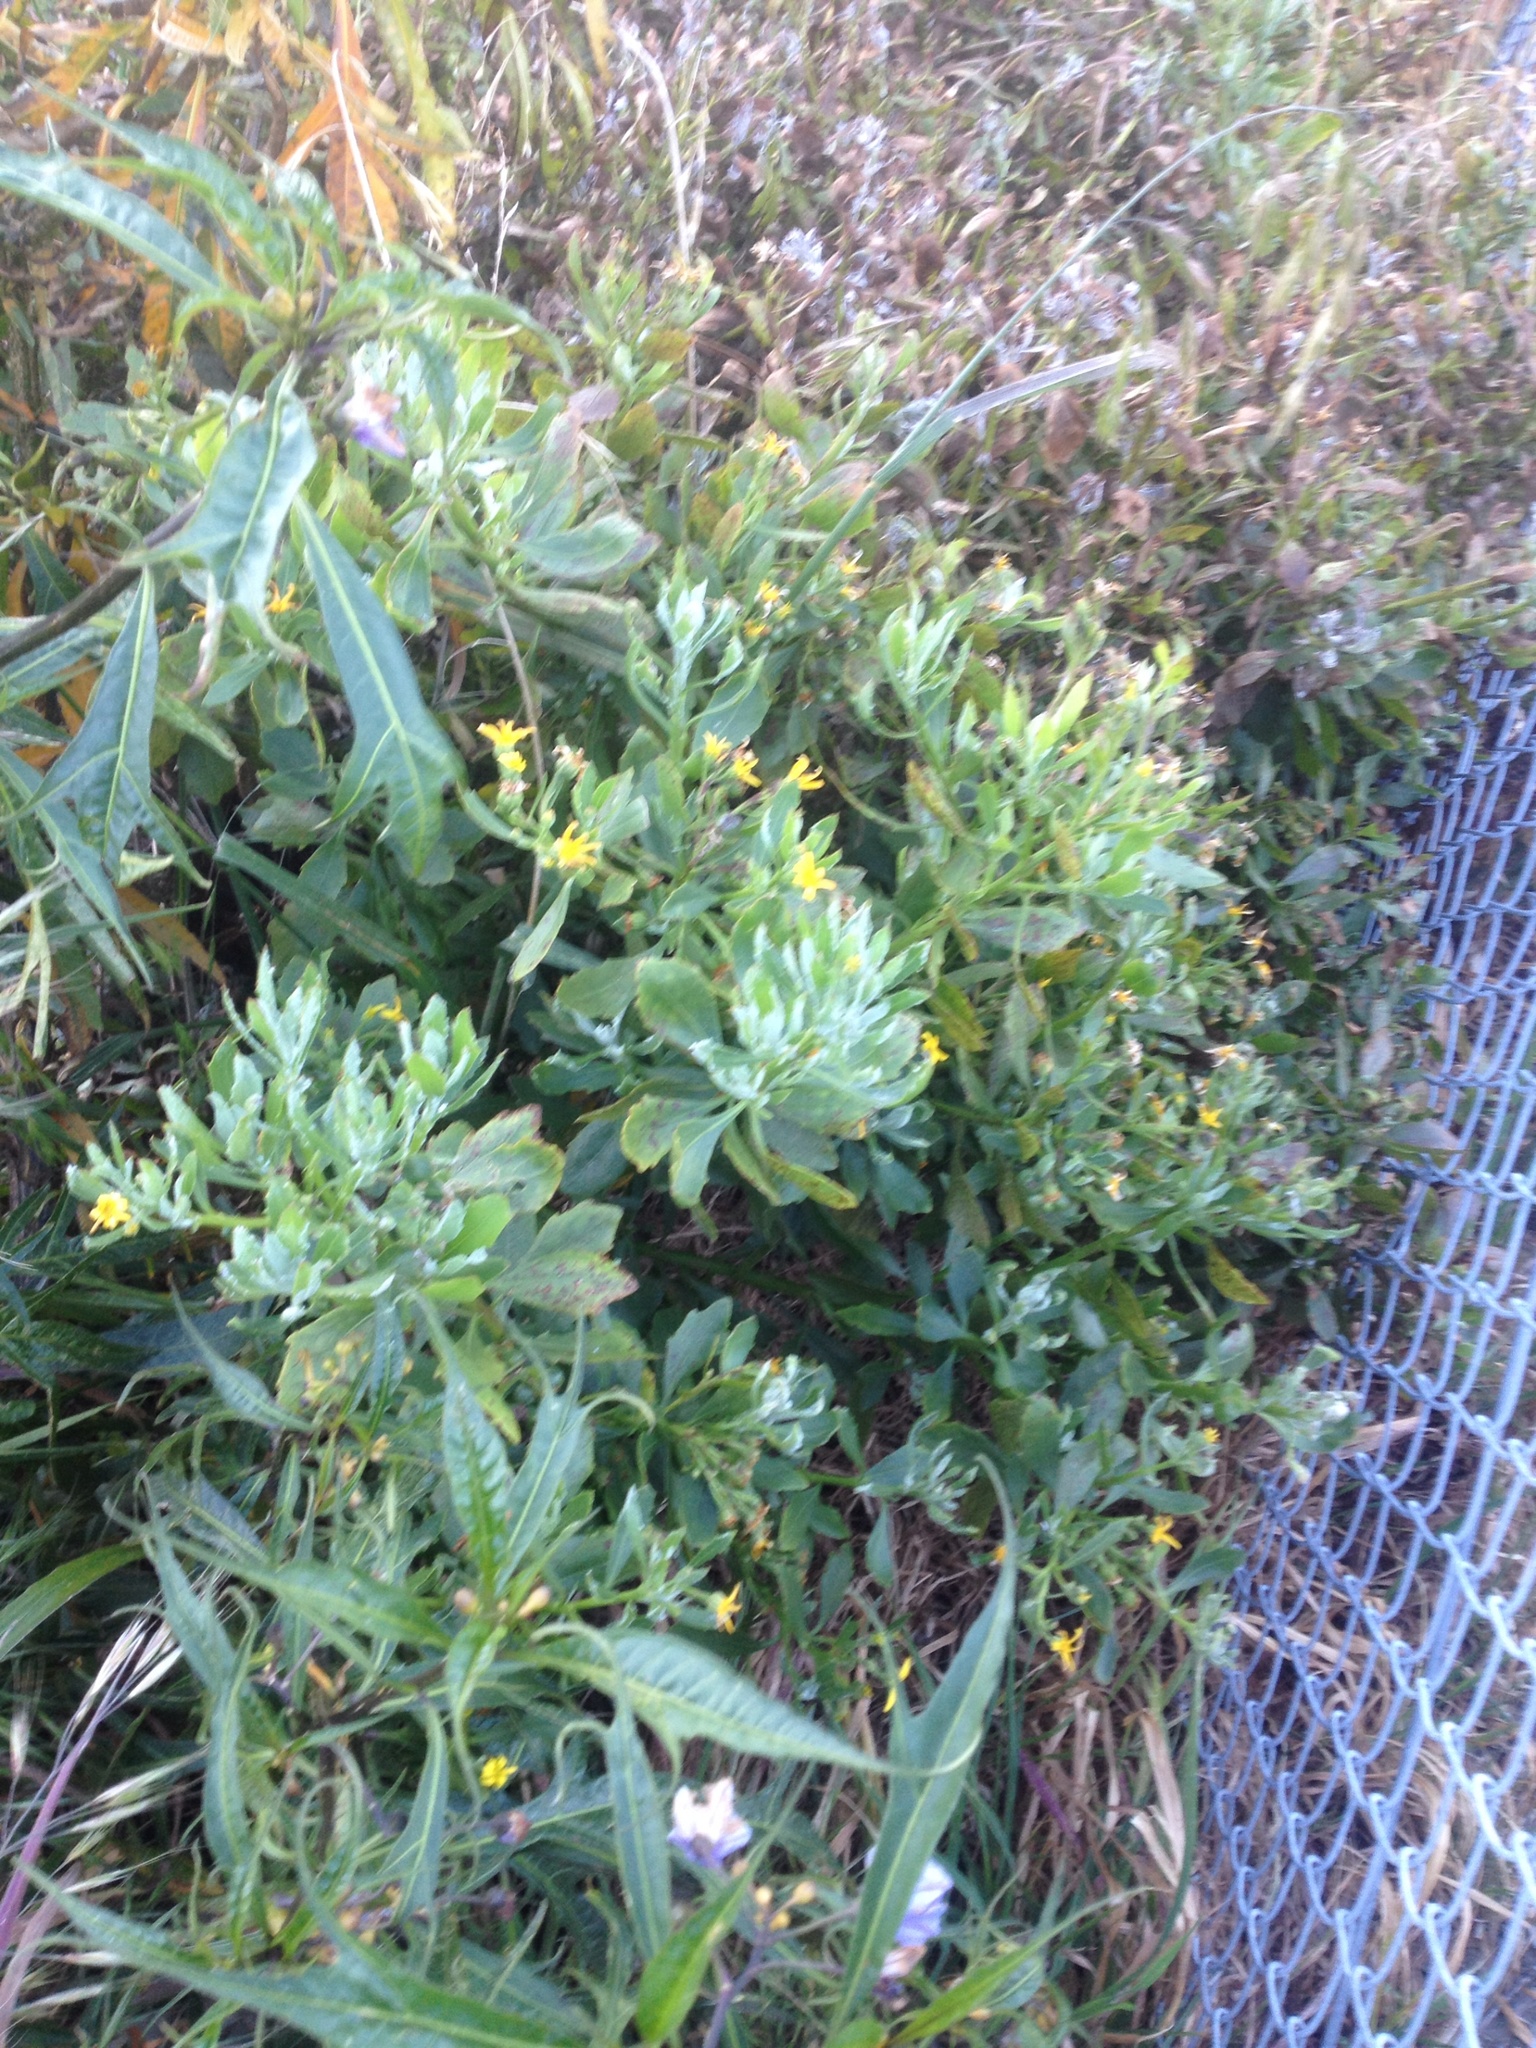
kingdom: Plantae
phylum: Tracheophyta
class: Magnoliopsida
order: Asterales
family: Asteraceae
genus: Osteospermum
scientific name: Osteospermum moniliferum
